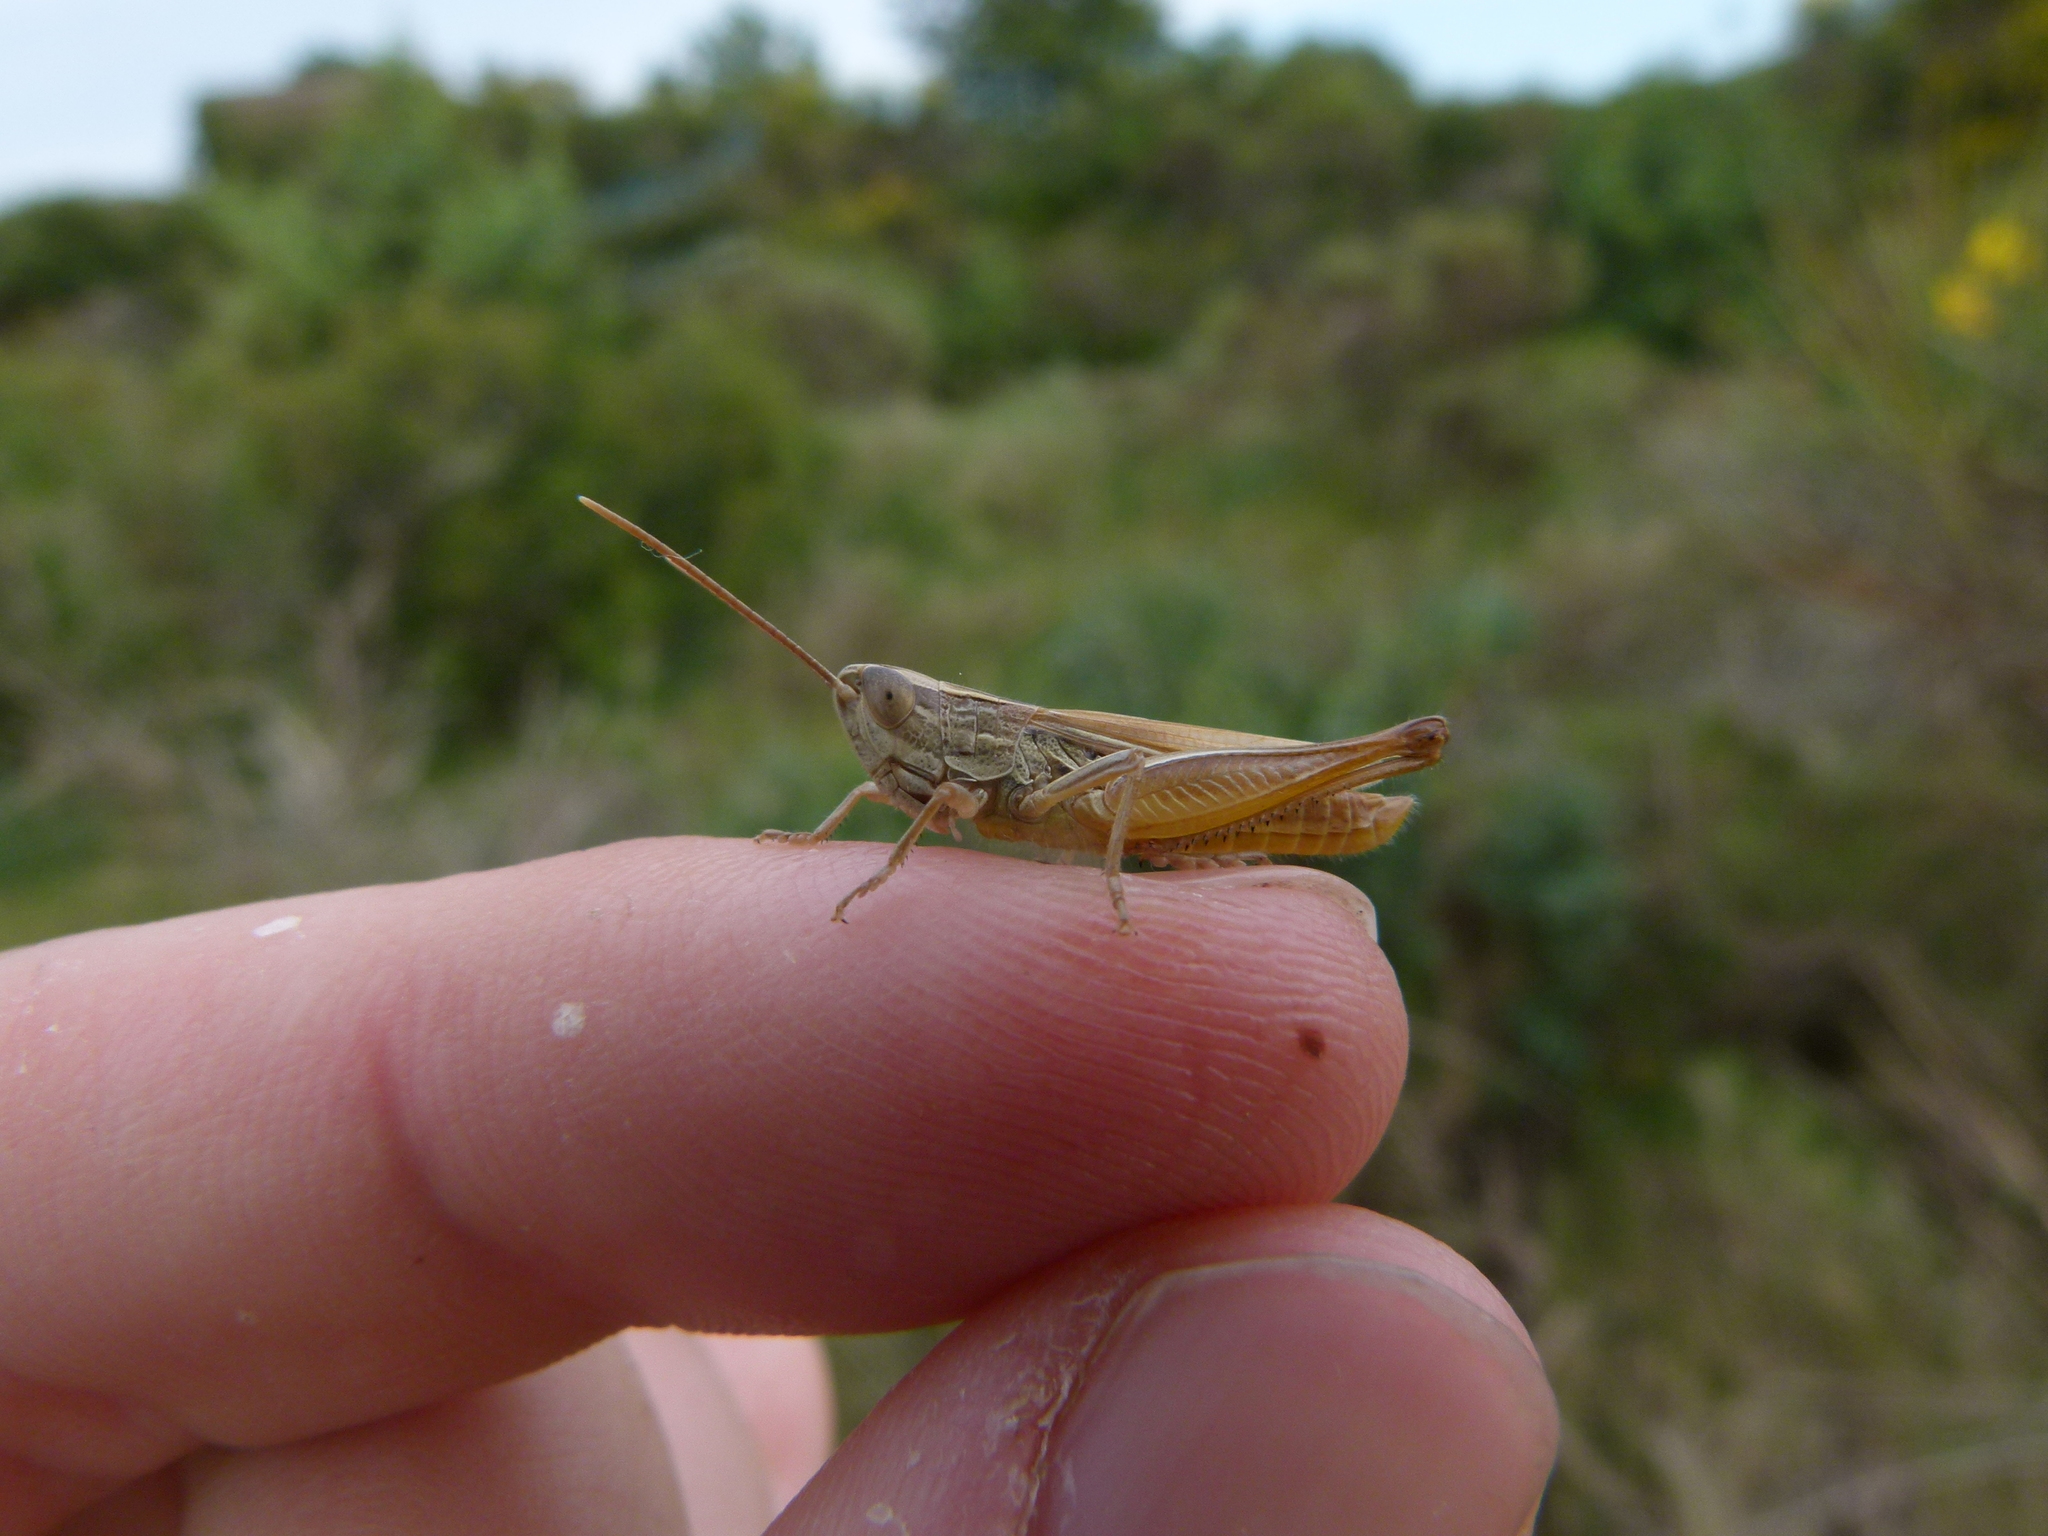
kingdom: Animalia
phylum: Arthropoda
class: Insecta
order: Orthoptera
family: Acrididae
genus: Euchorthippus
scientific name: Euchorthippus elegantulus
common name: Elegant straw grasshopper
